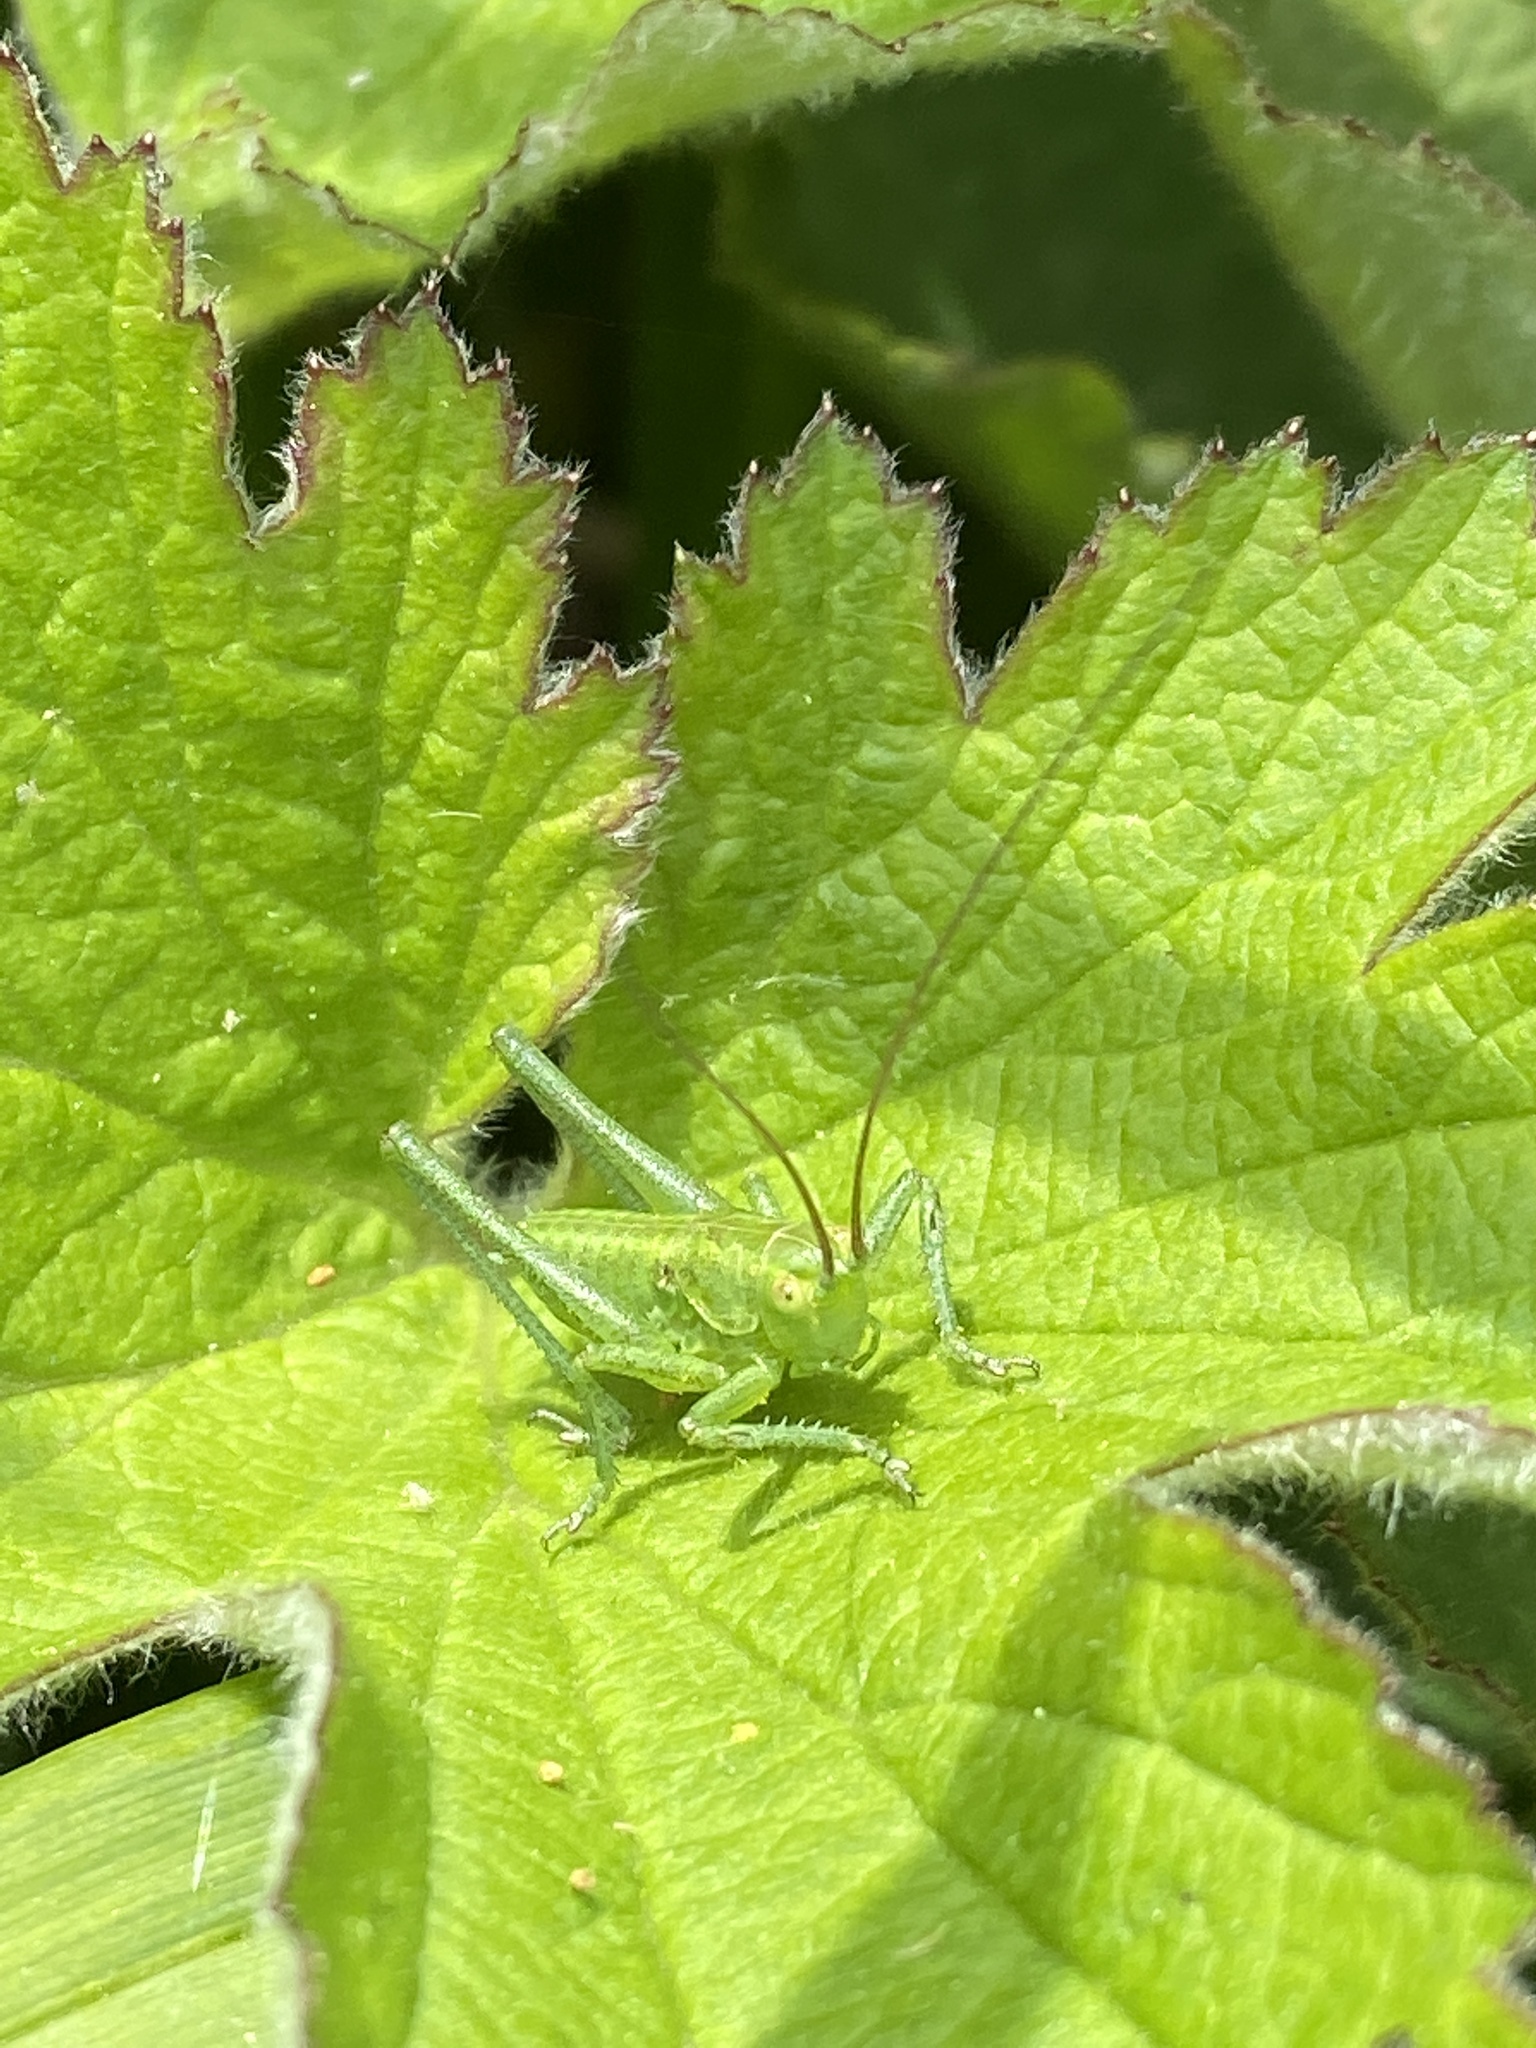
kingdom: Animalia
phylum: Arthropoda
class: Insecta
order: Orthoptera
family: Tettigoniidae
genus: Tettigonia
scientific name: Tettigonia viridissima
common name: Great green bush-cricket
